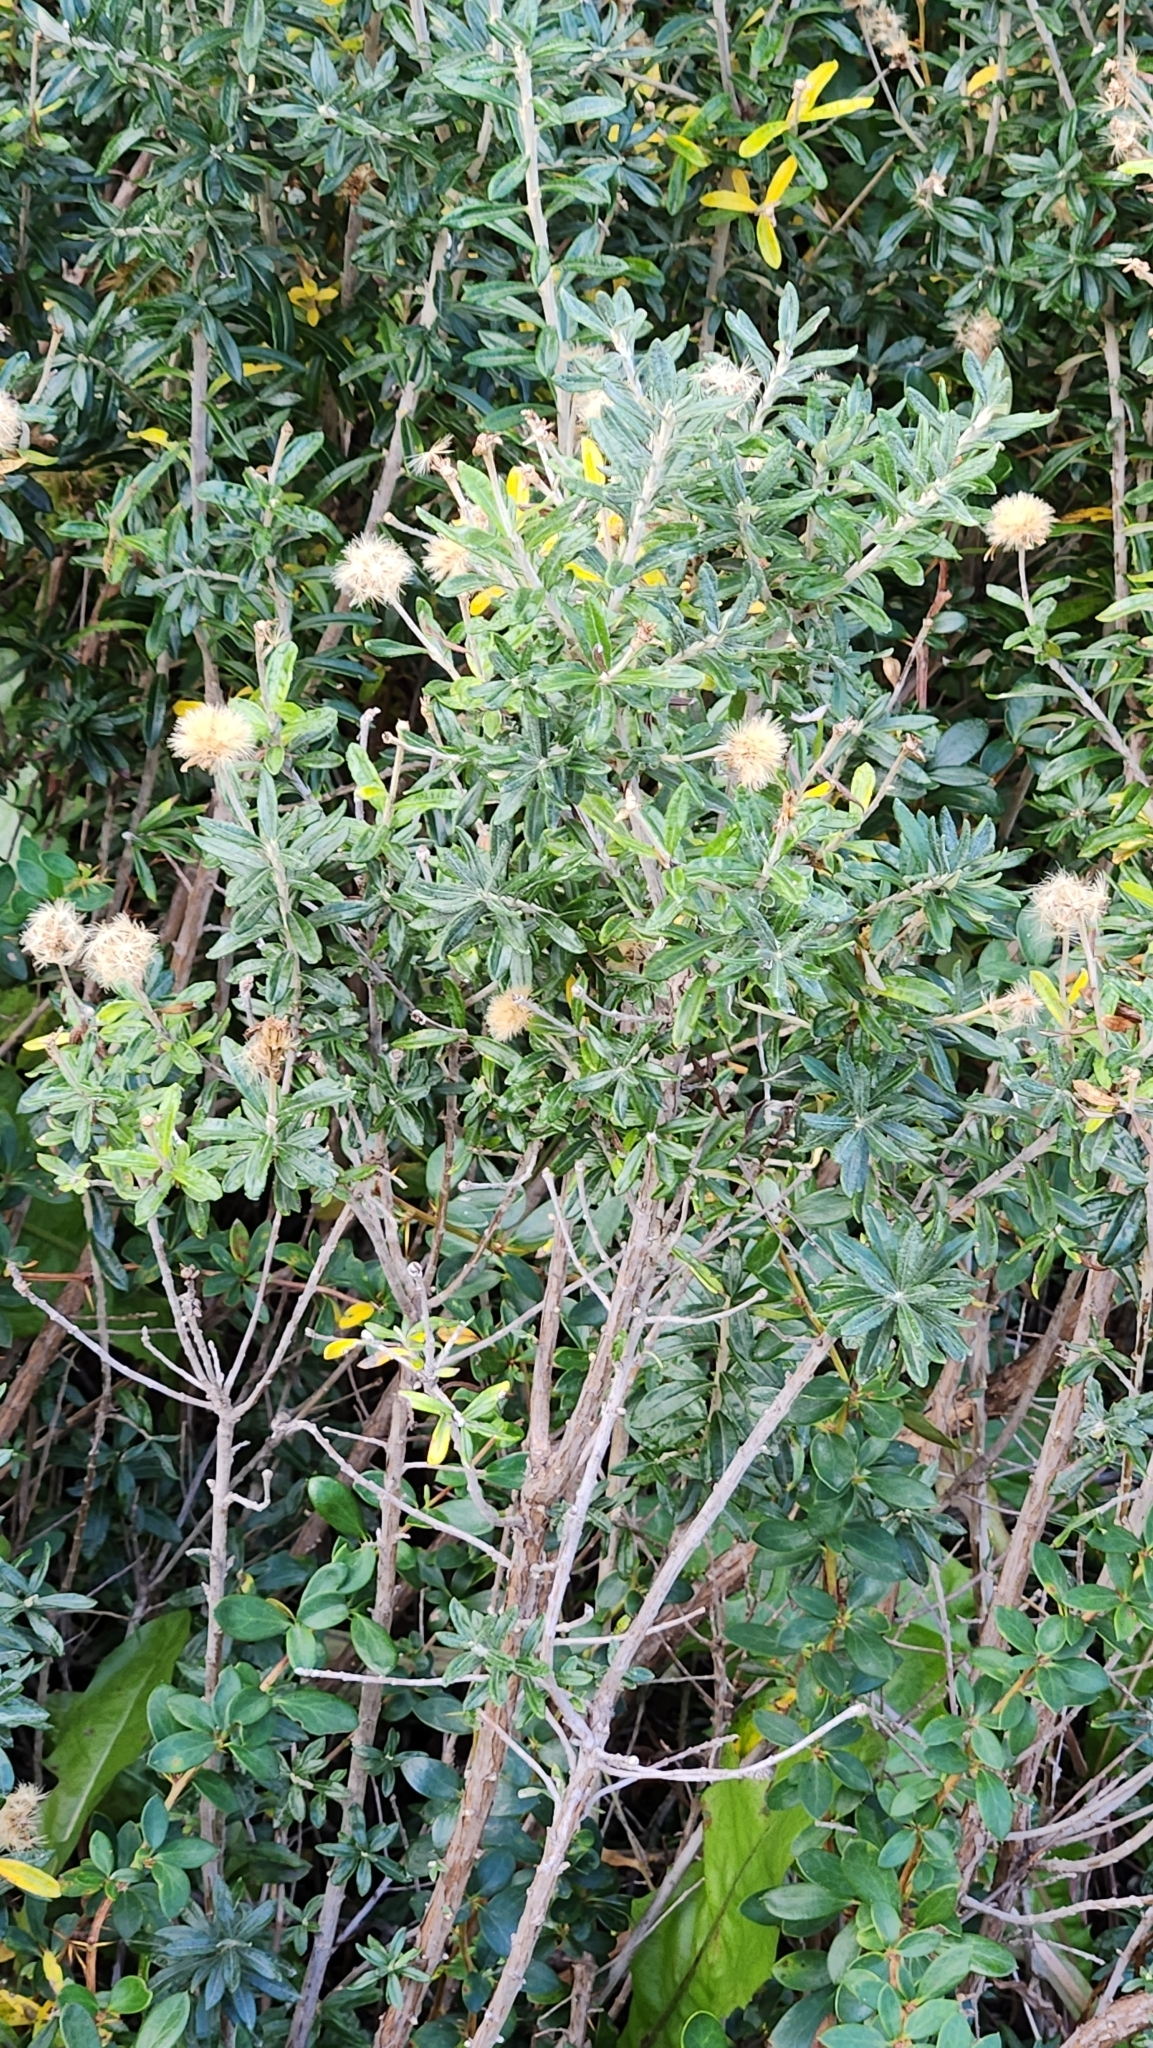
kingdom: Plantae
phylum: Tracheophyta
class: Magnoliopsida
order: Asterales
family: Asteraceae
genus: Chiliotrichum
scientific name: Chiliotrichum diffusum
